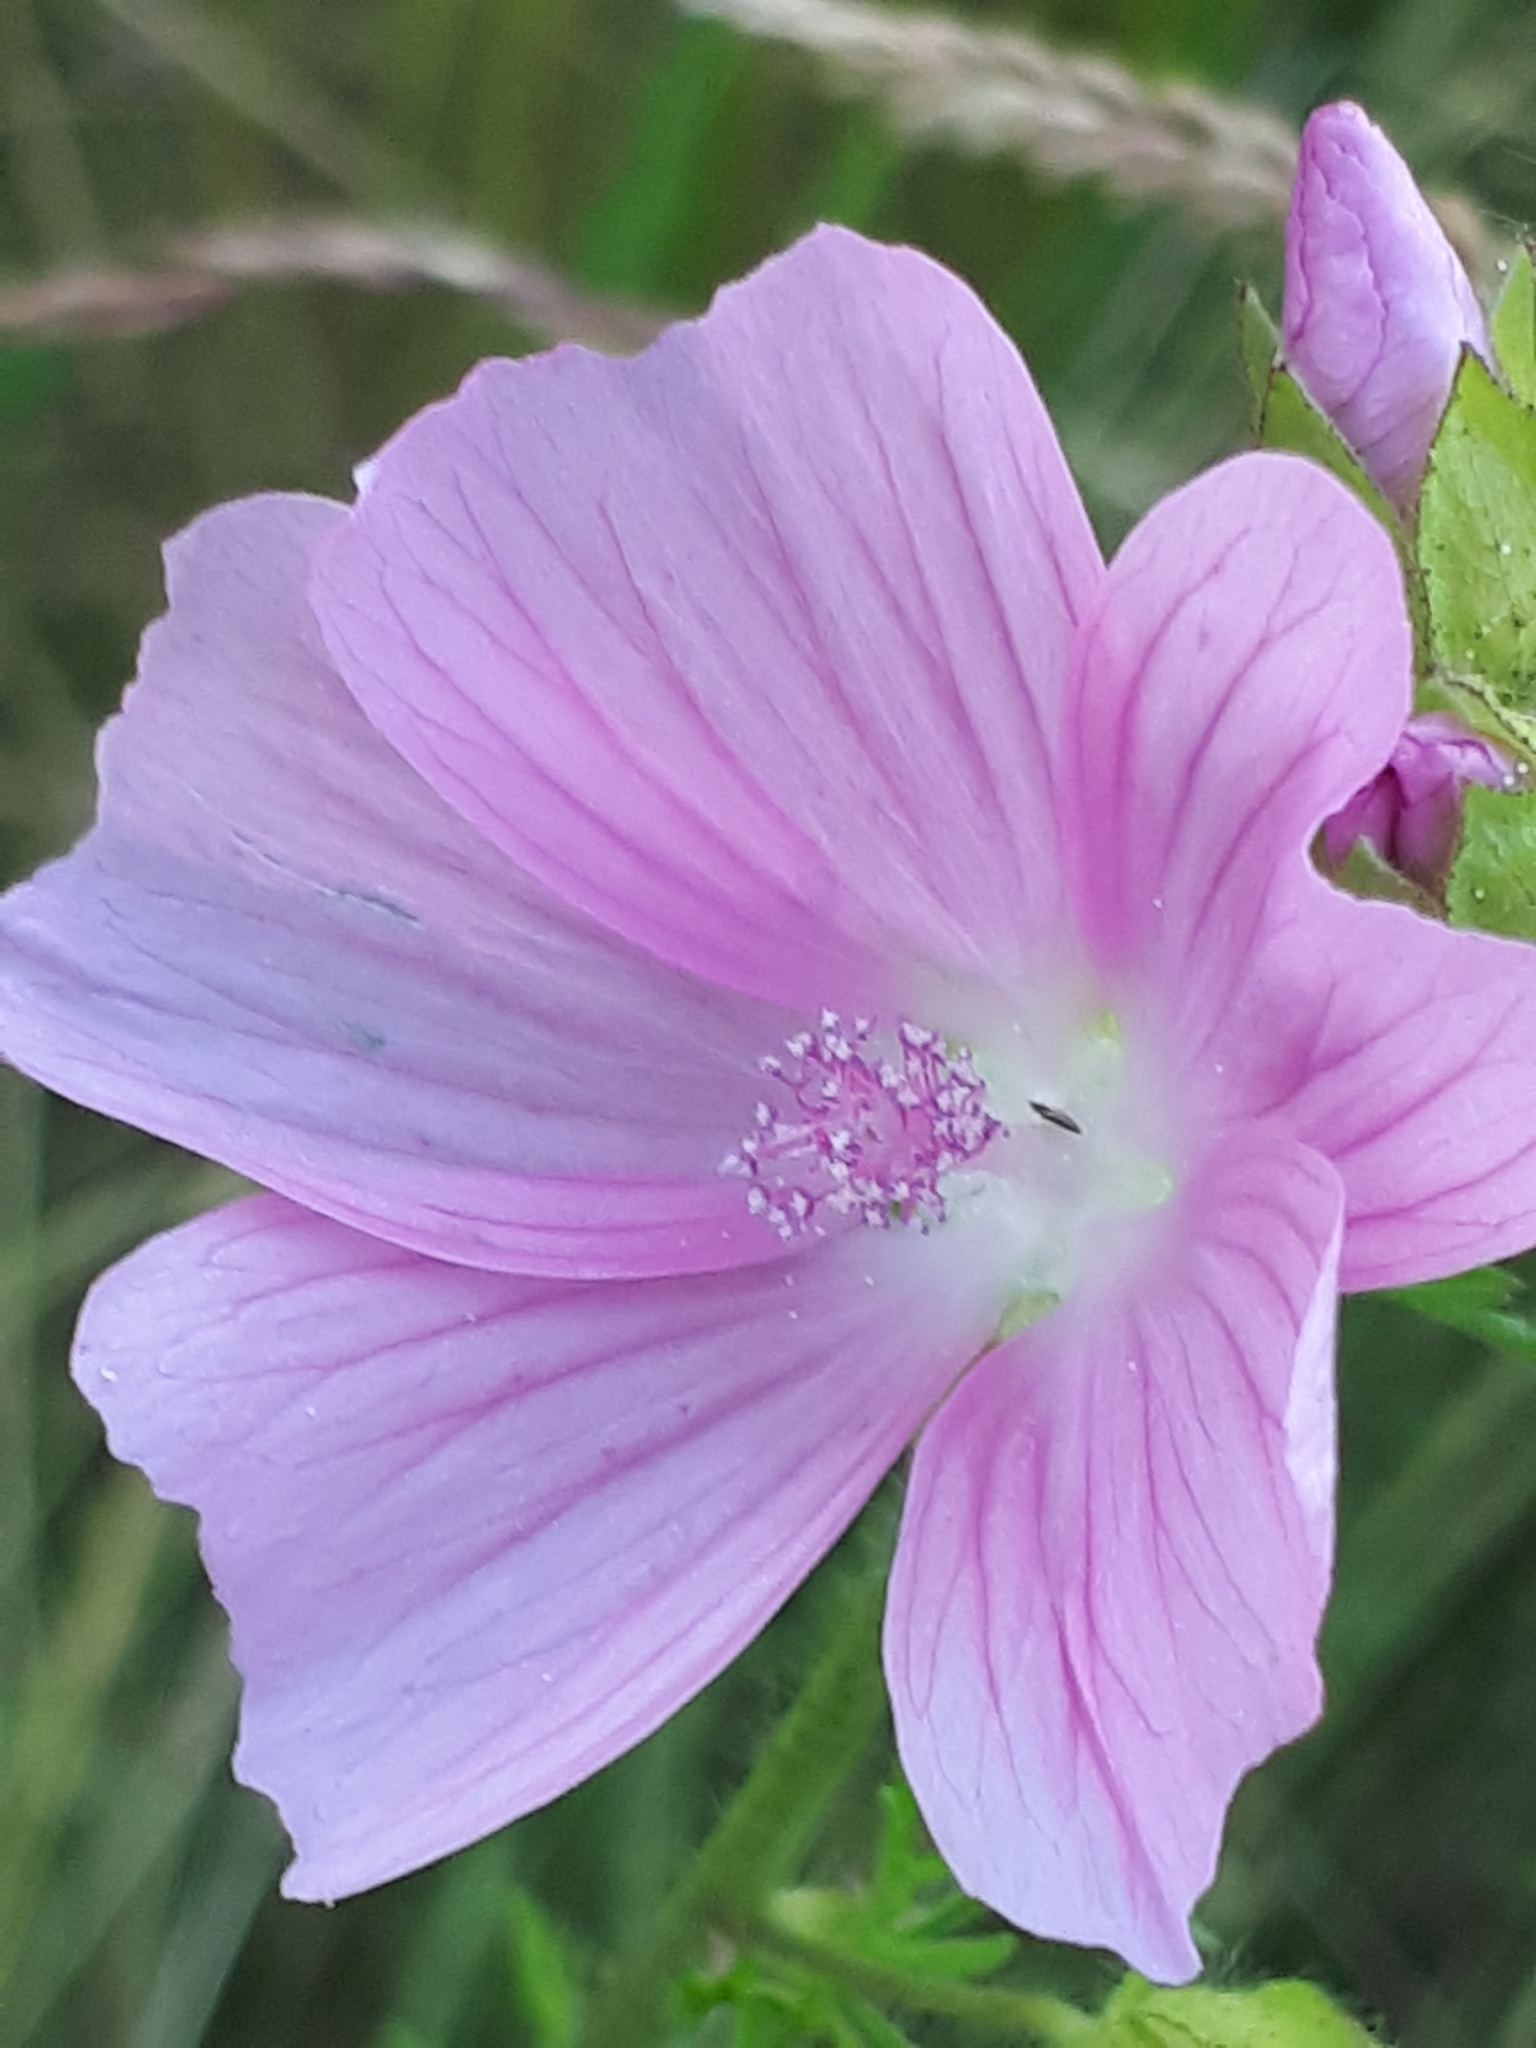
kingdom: Plantae
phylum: Tracheophyta
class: Magnoliopsida
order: Malvales
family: Malvaceae
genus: Malva
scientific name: Malva moschata
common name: Musk mallow
